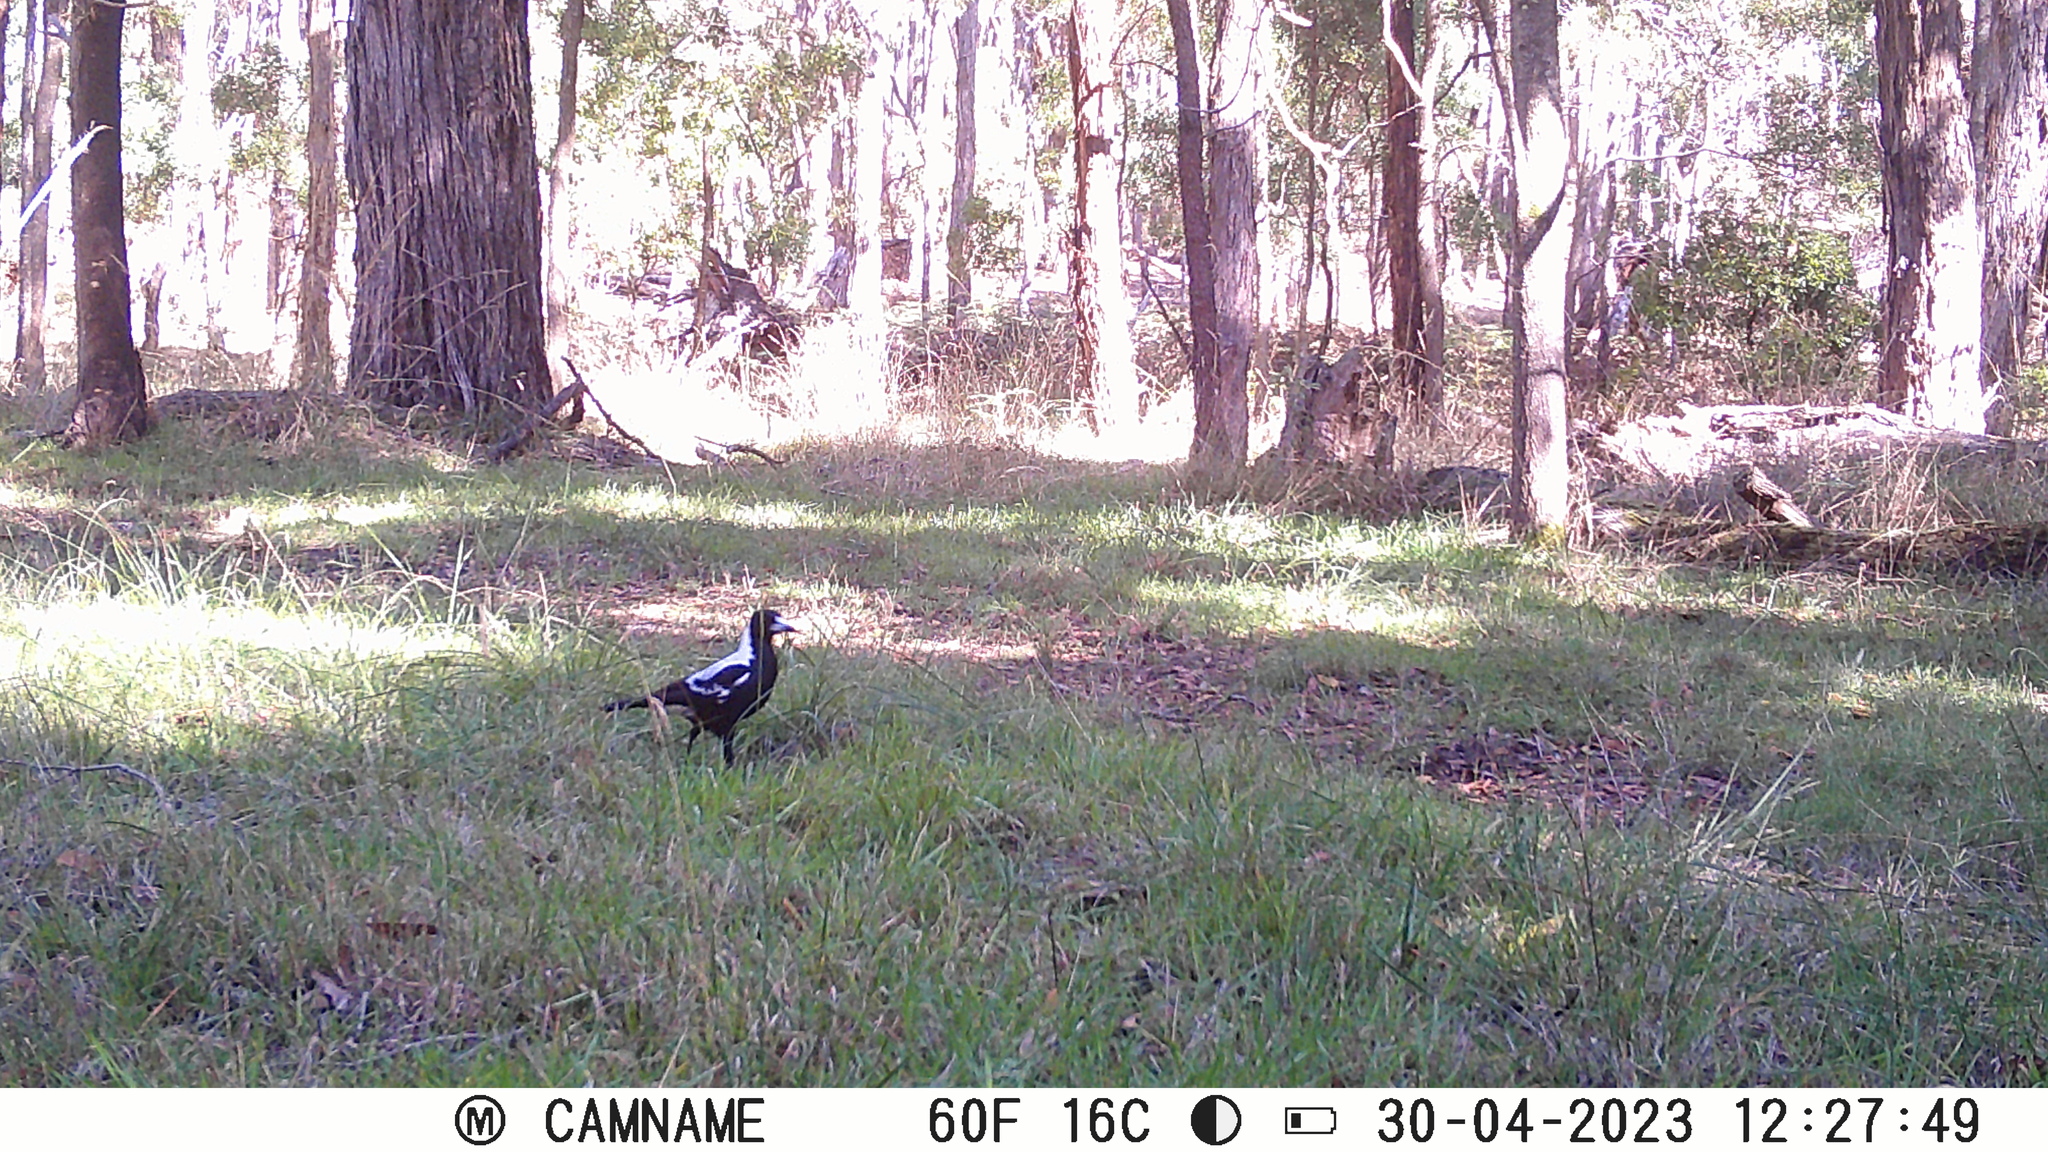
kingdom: Animalia
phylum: Chordata
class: Aves
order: Passeriformes
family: Cracticidae
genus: Gymnorhina
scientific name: Gymnorhina tibicen
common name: Australian magpie
